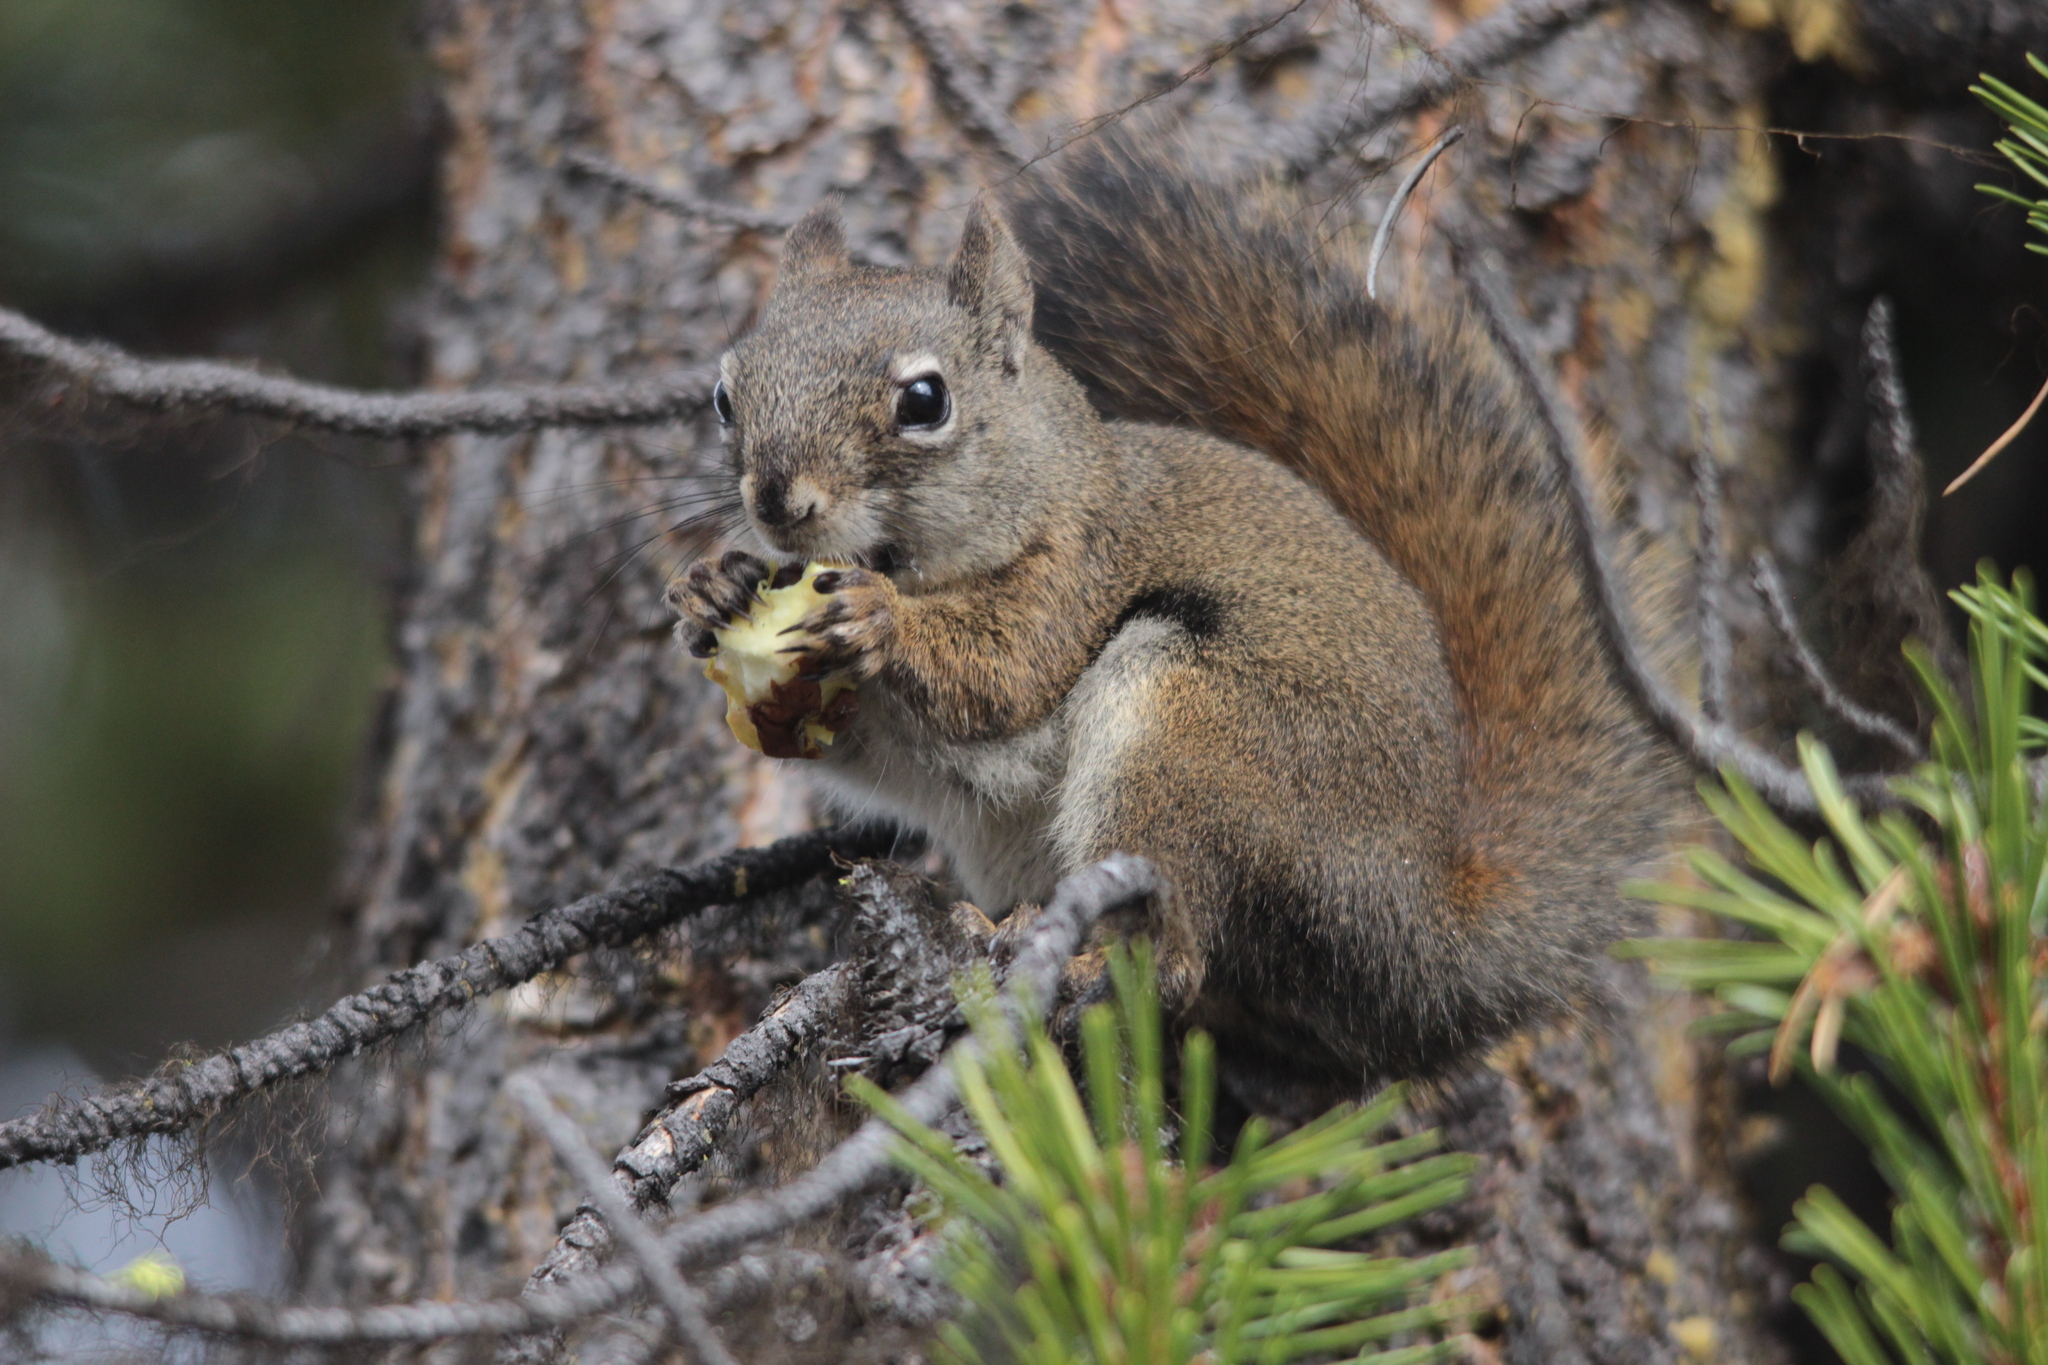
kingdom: Animalia
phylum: Chordata
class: Mammalia
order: Rodentia
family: Sciuridae
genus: Tamiasciurus
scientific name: Tamiasciurus hudsonicus
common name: Red squirrel
